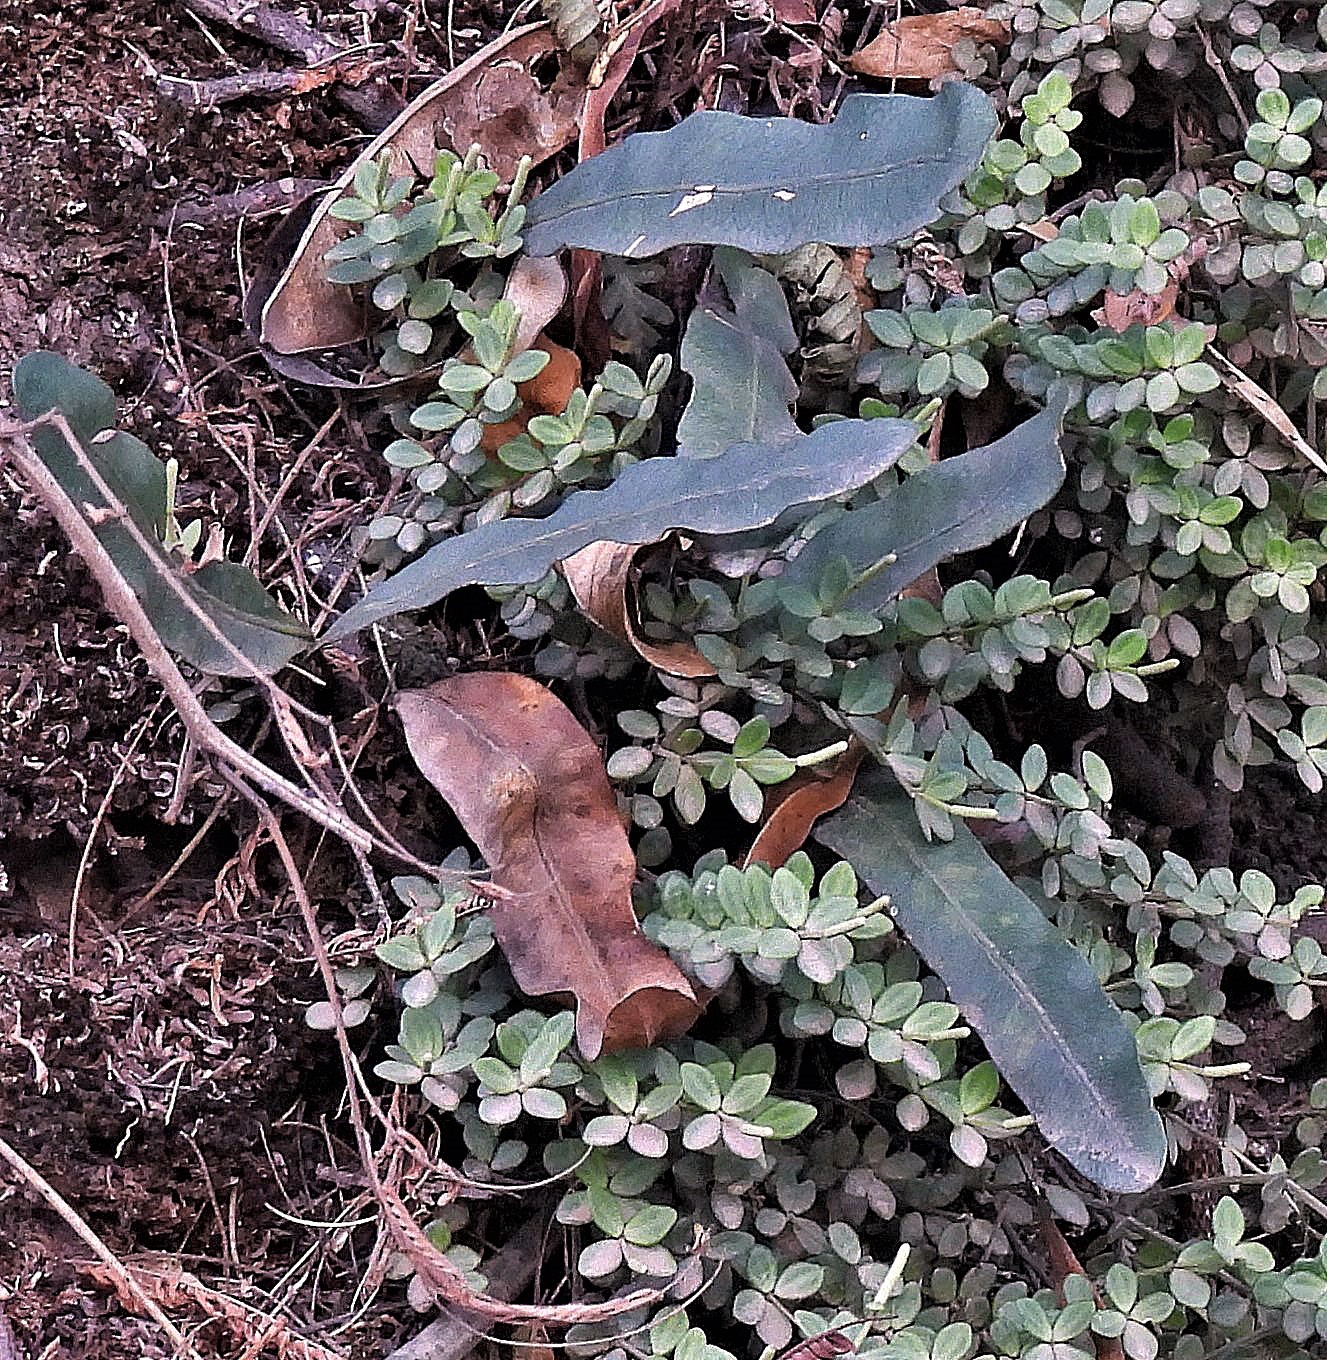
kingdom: Plantae
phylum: Tracheophyta
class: Polypodiopsida
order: Polypodiales
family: Polypodiaceae
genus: Microgramma
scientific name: Microgramma squamulosa
